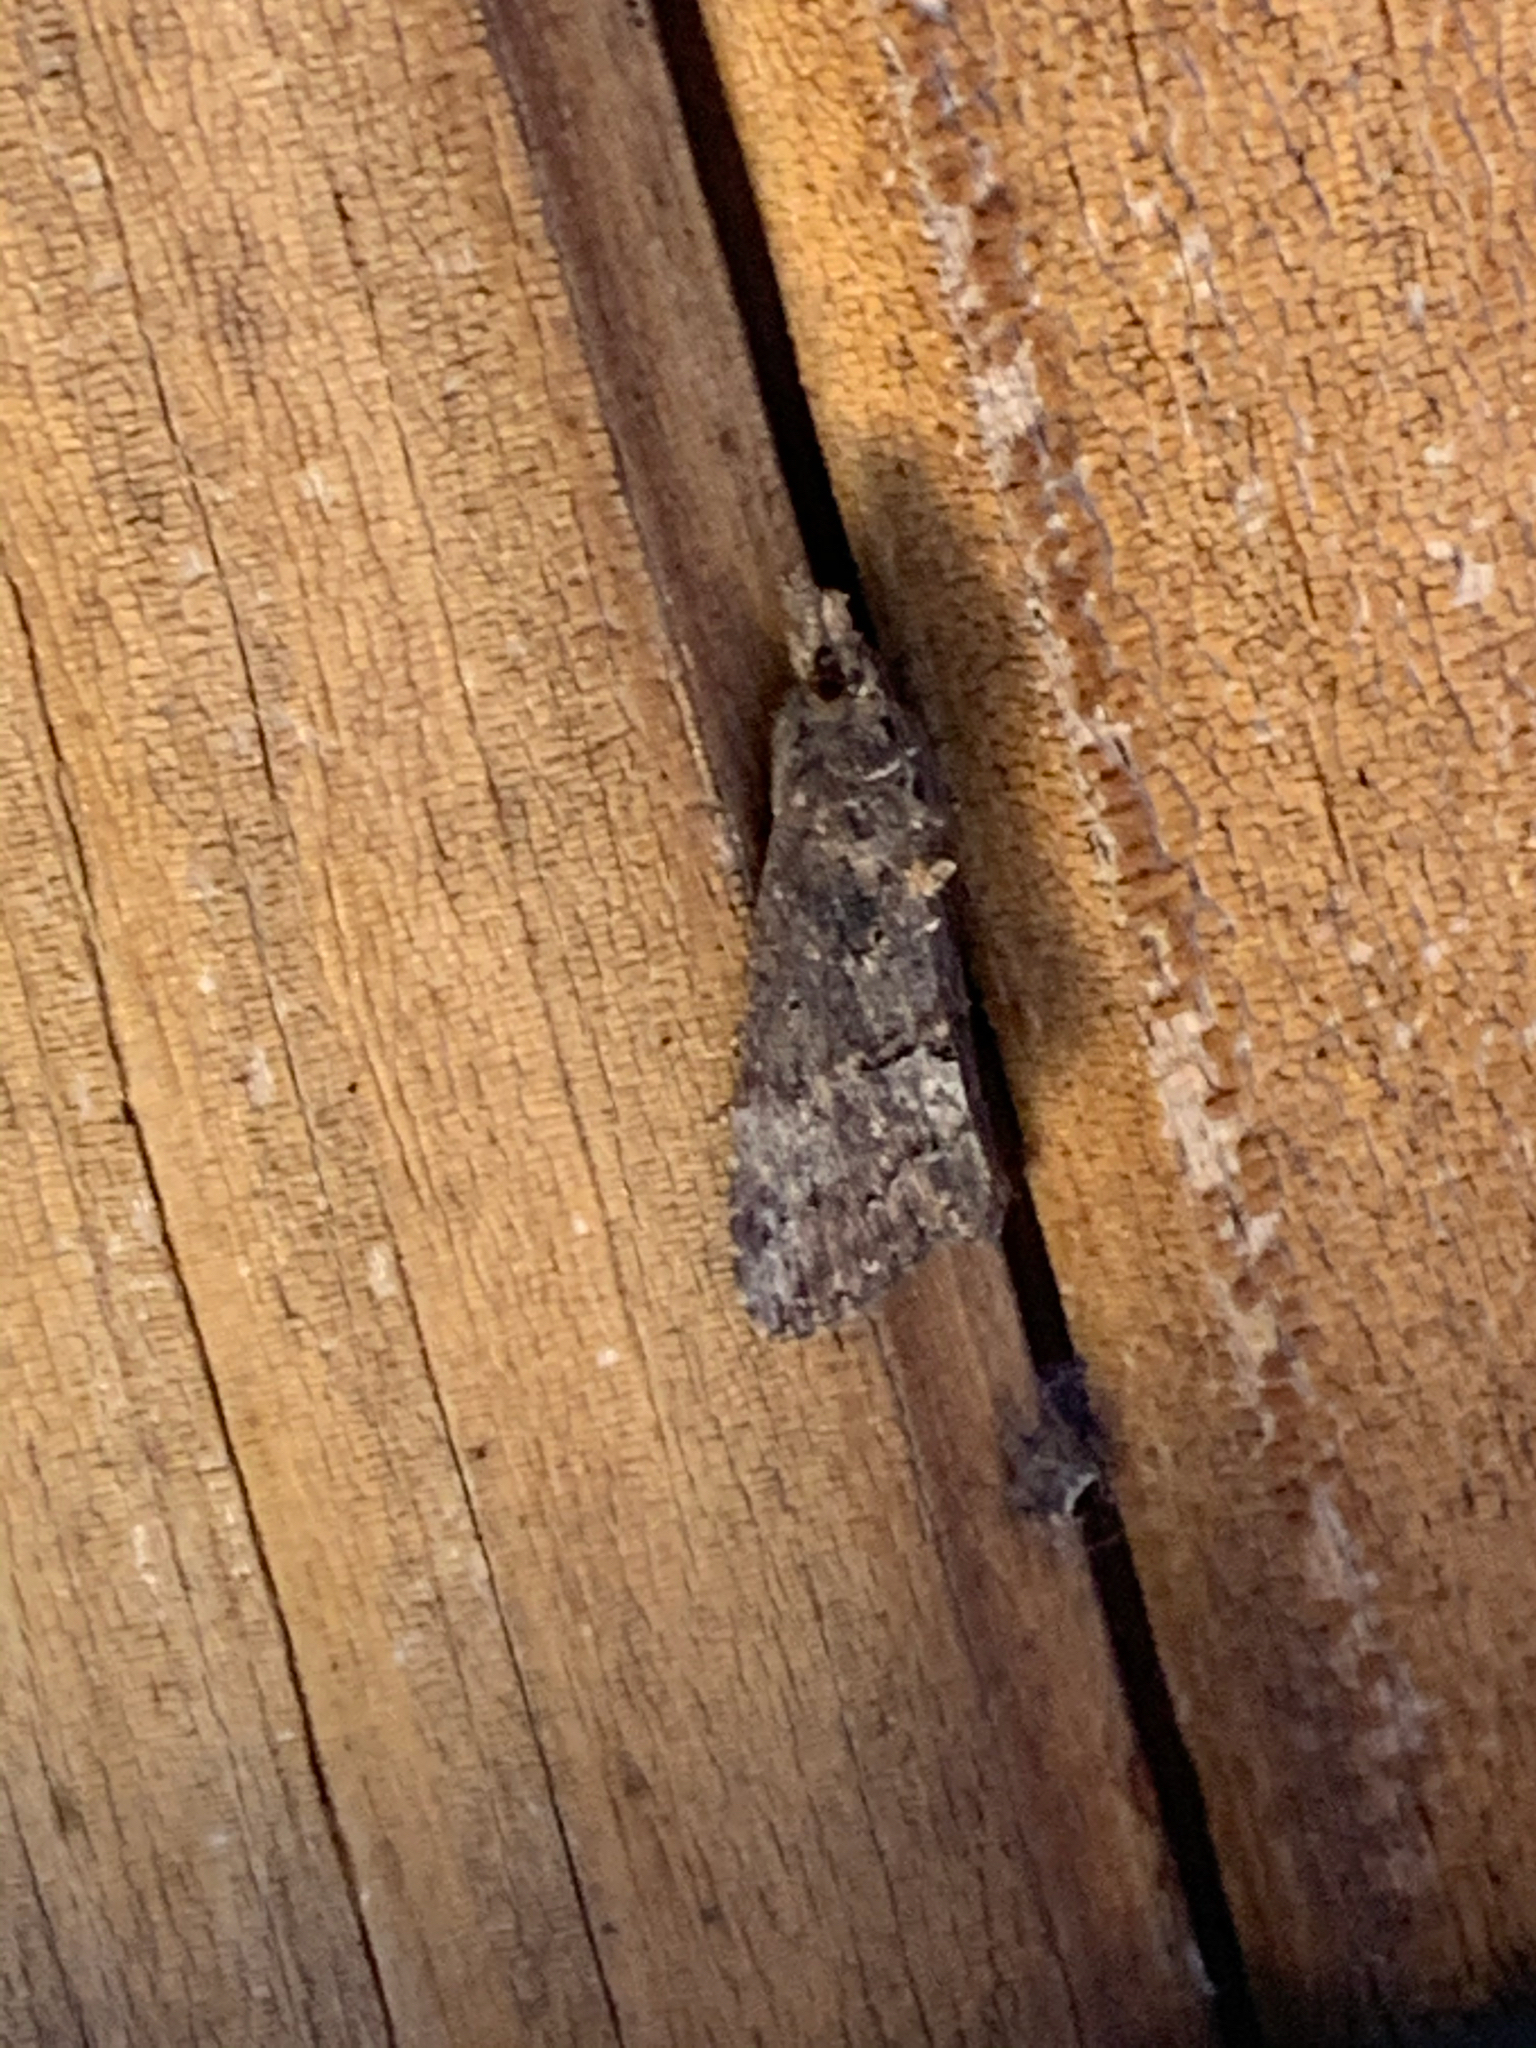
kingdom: Animalia
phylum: Arthropoda
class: Insecta
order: Lepidoptera
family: Erebidae
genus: Hypena
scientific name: Hypena scabra
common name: Green cloverworm
